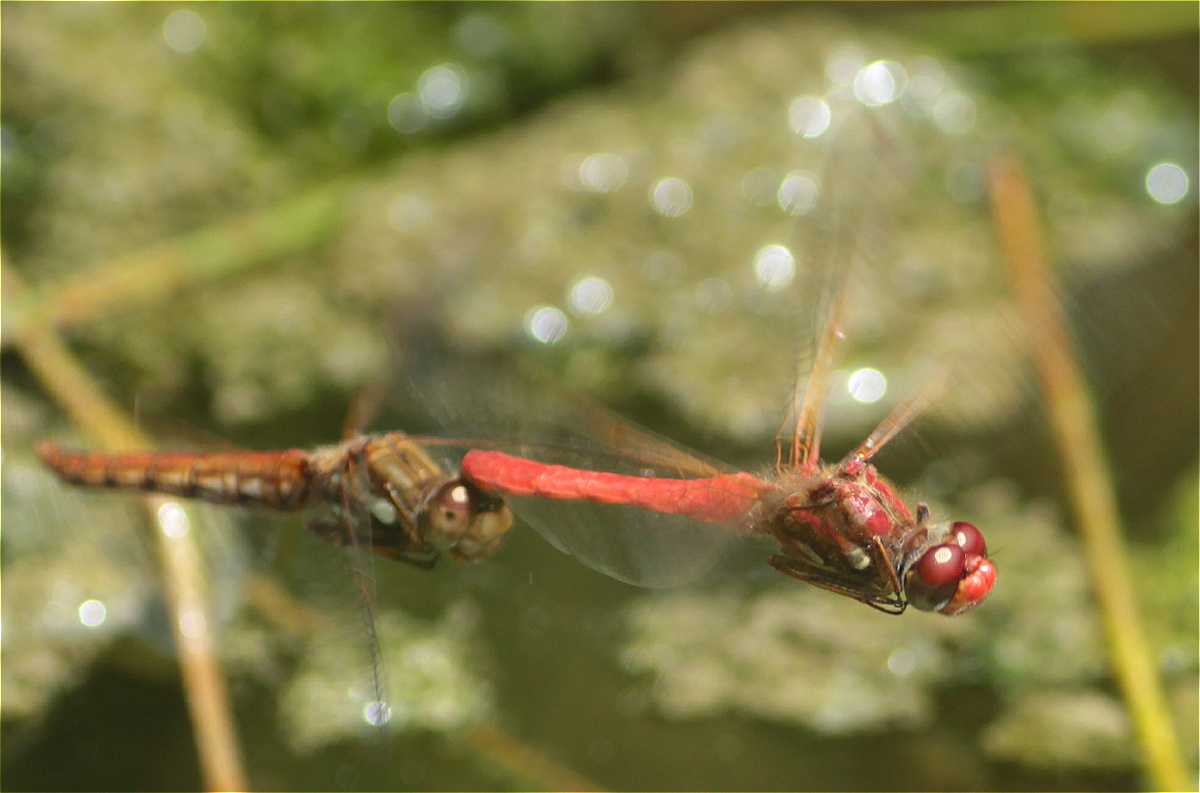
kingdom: Animalia
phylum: Arthropoda
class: Insecta
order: Odonata
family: Libellulidae
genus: Sympetrum
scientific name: Sympetrum gilvum
